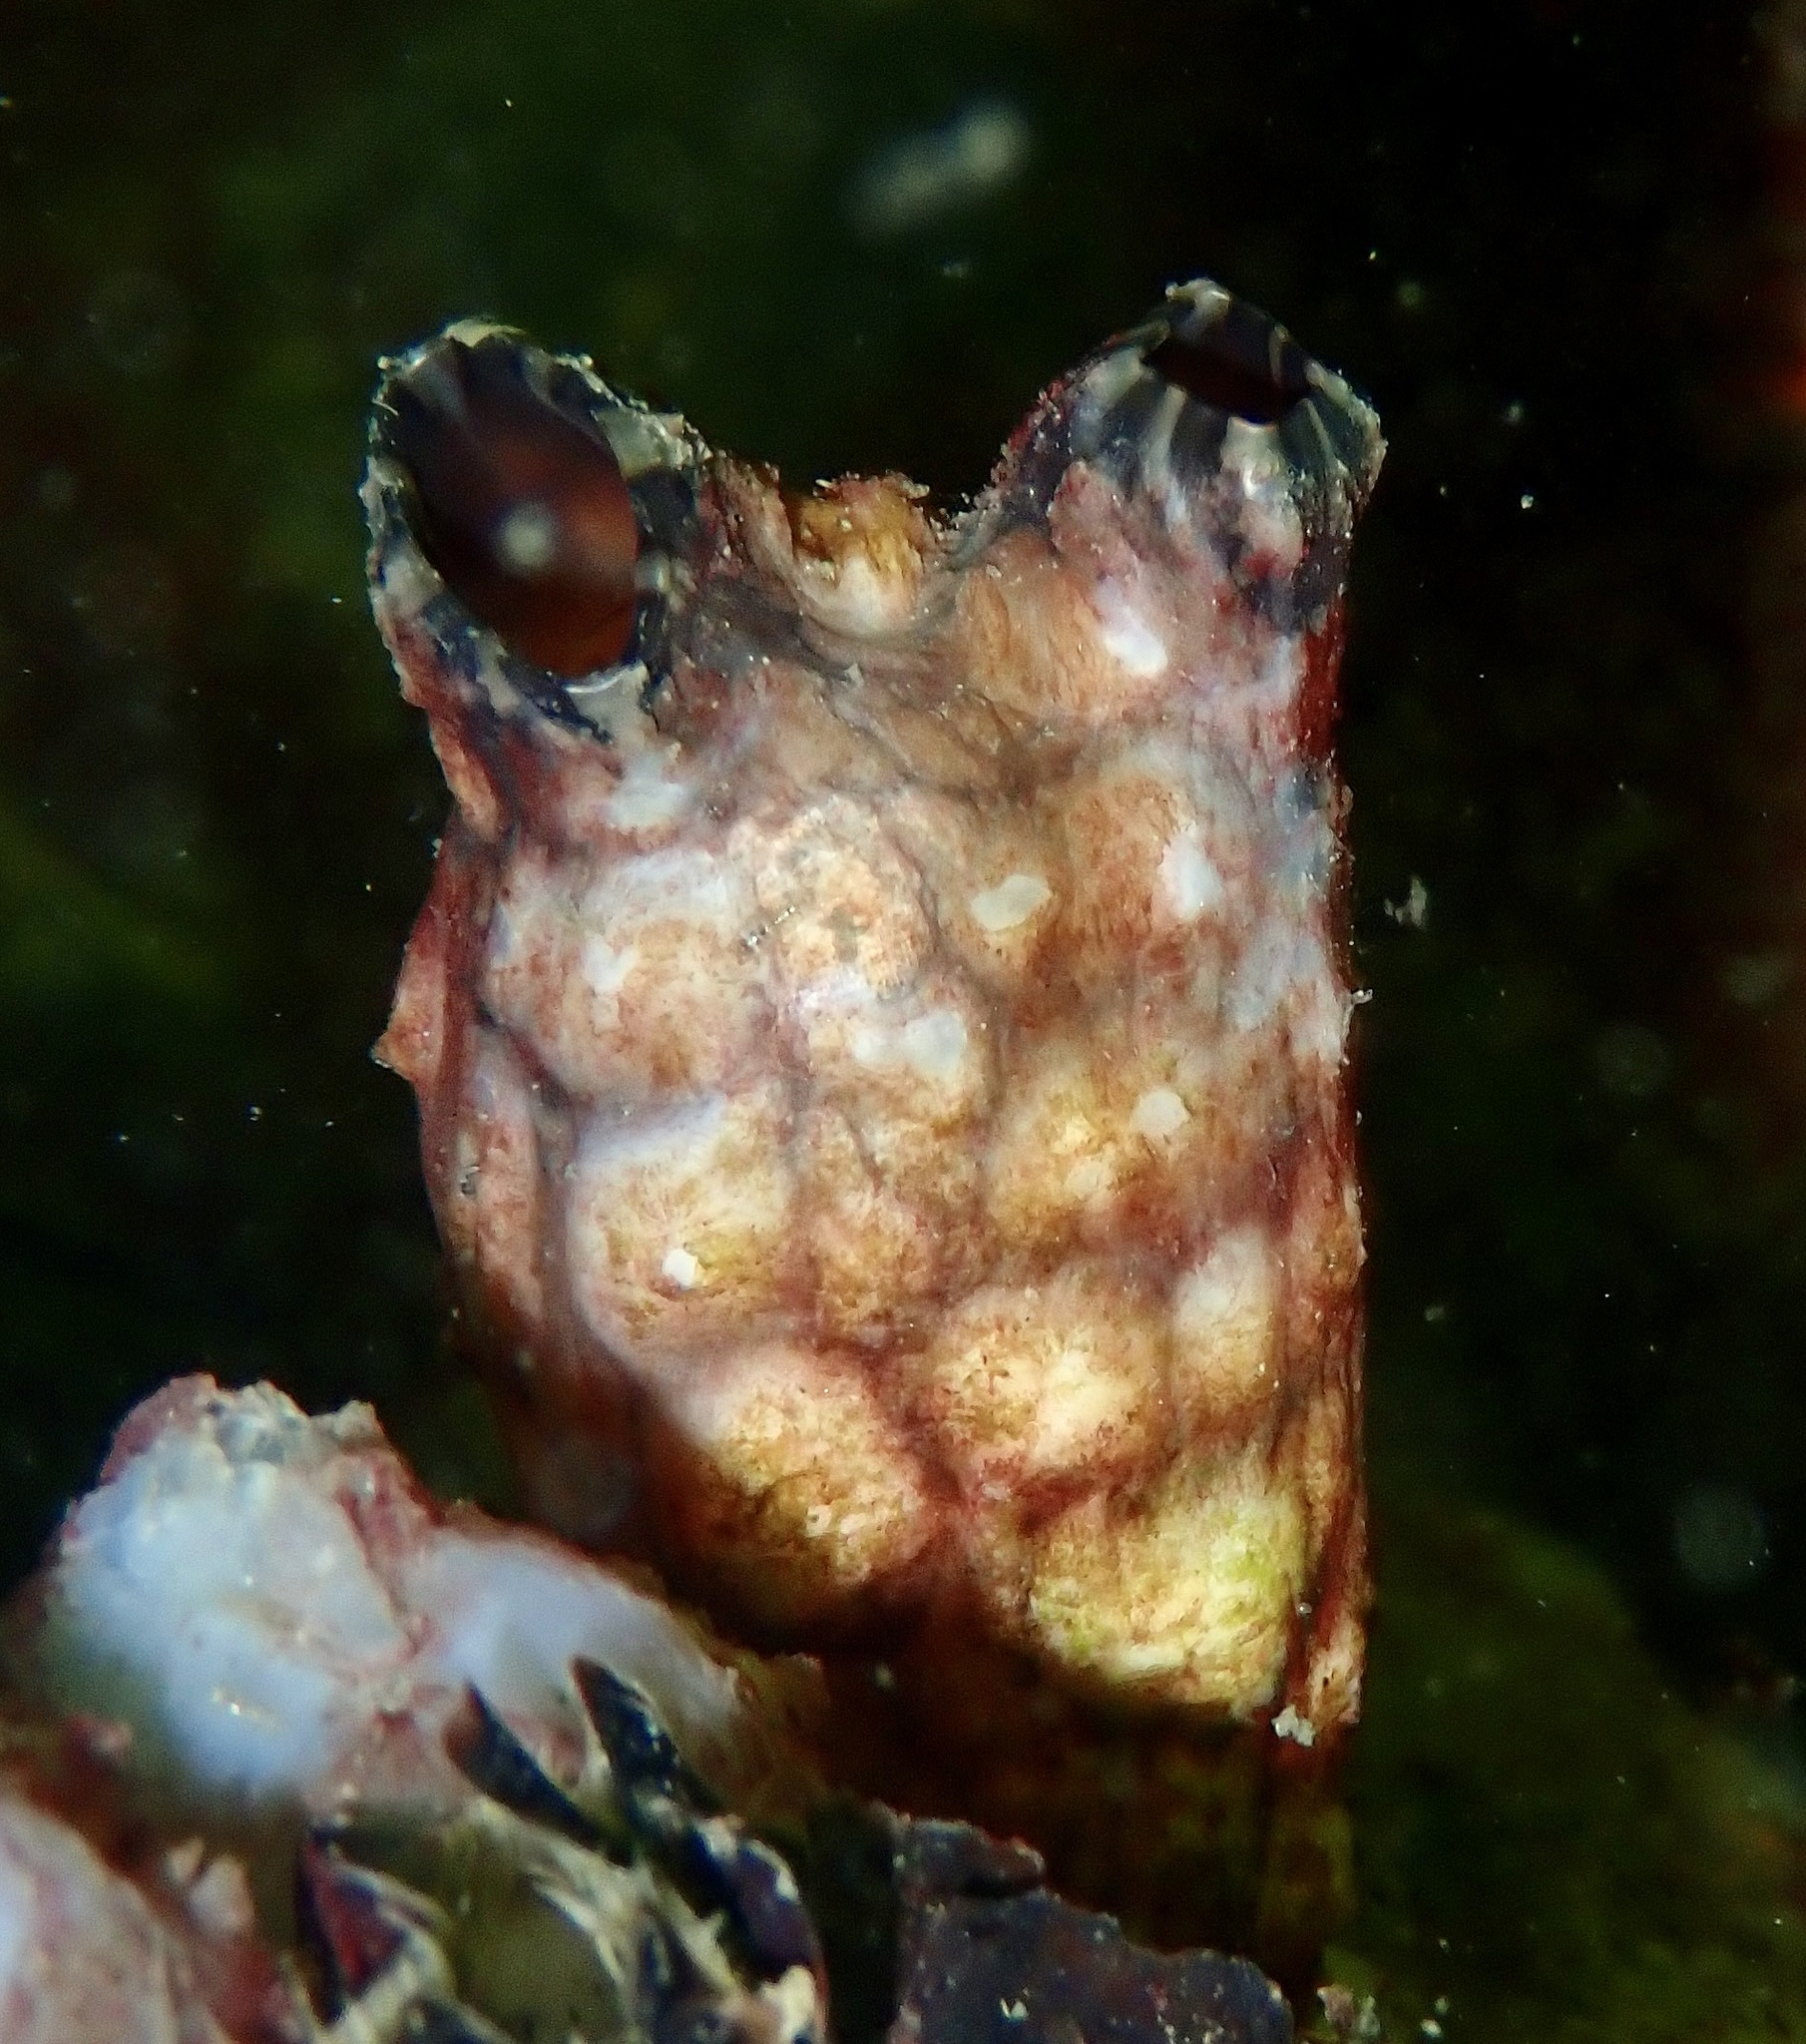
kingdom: Animalia
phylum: Chordata
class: Ascidiacea
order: Stolidobranchia
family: Styelidae
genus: Styela
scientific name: Styela clava
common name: Leathery sea squirt
